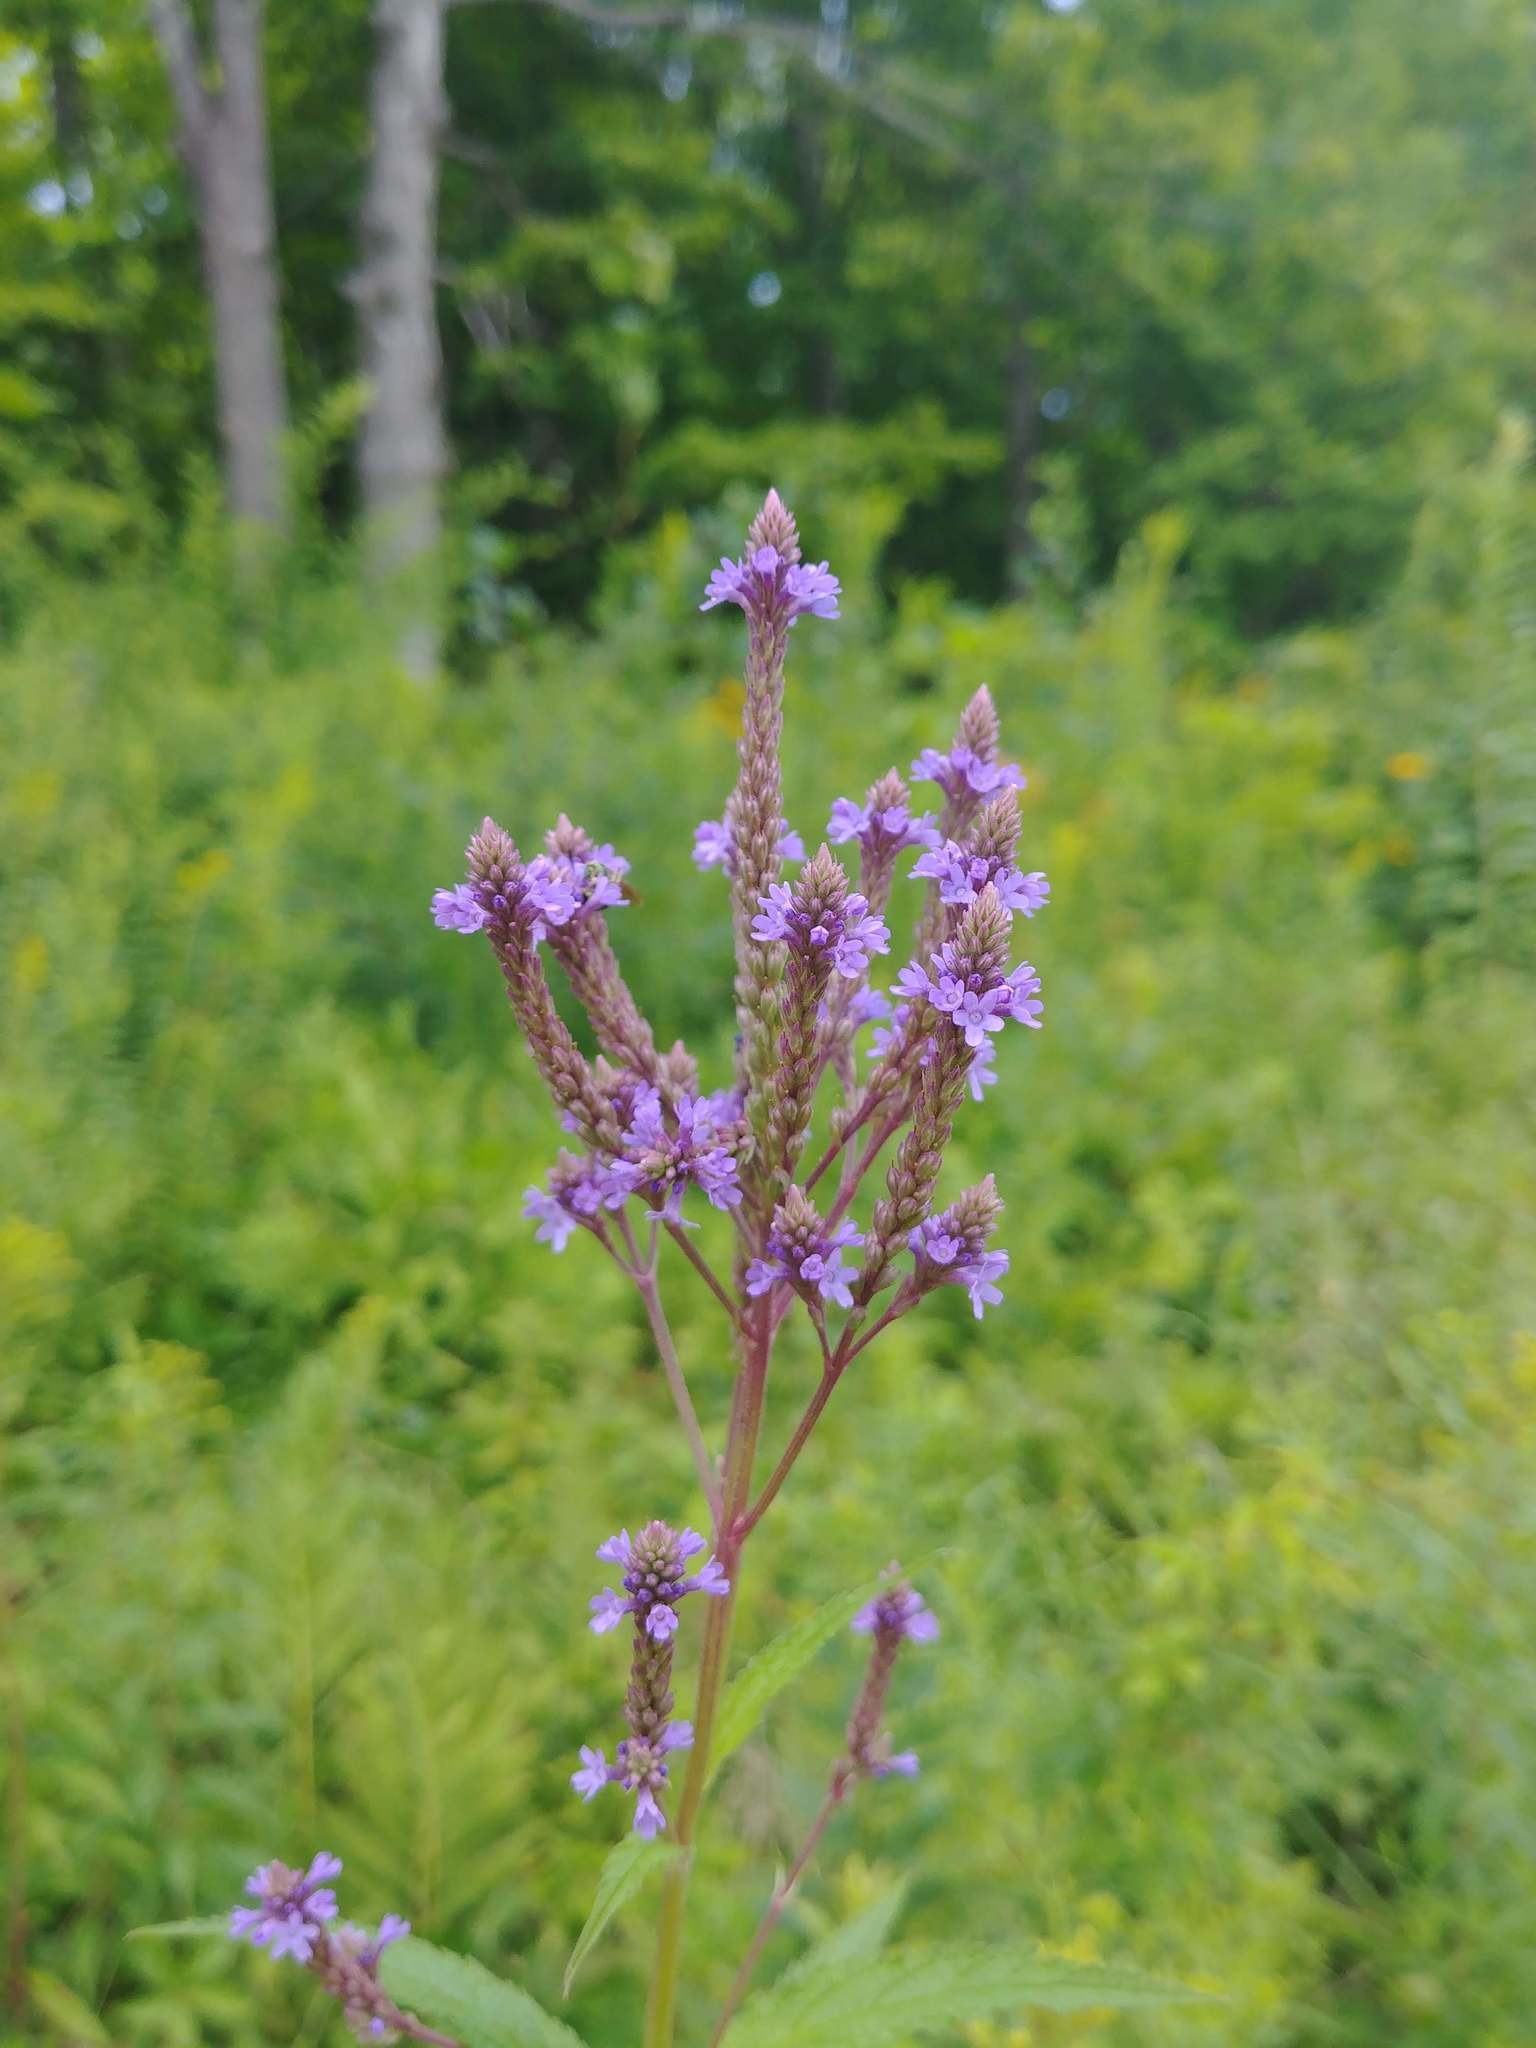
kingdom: Plantae
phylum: Tracheophyta
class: Magnoliopsida
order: Lamiales
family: Verbenaceae
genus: Verbena
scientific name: Verbena hastata
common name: American blue vervain
